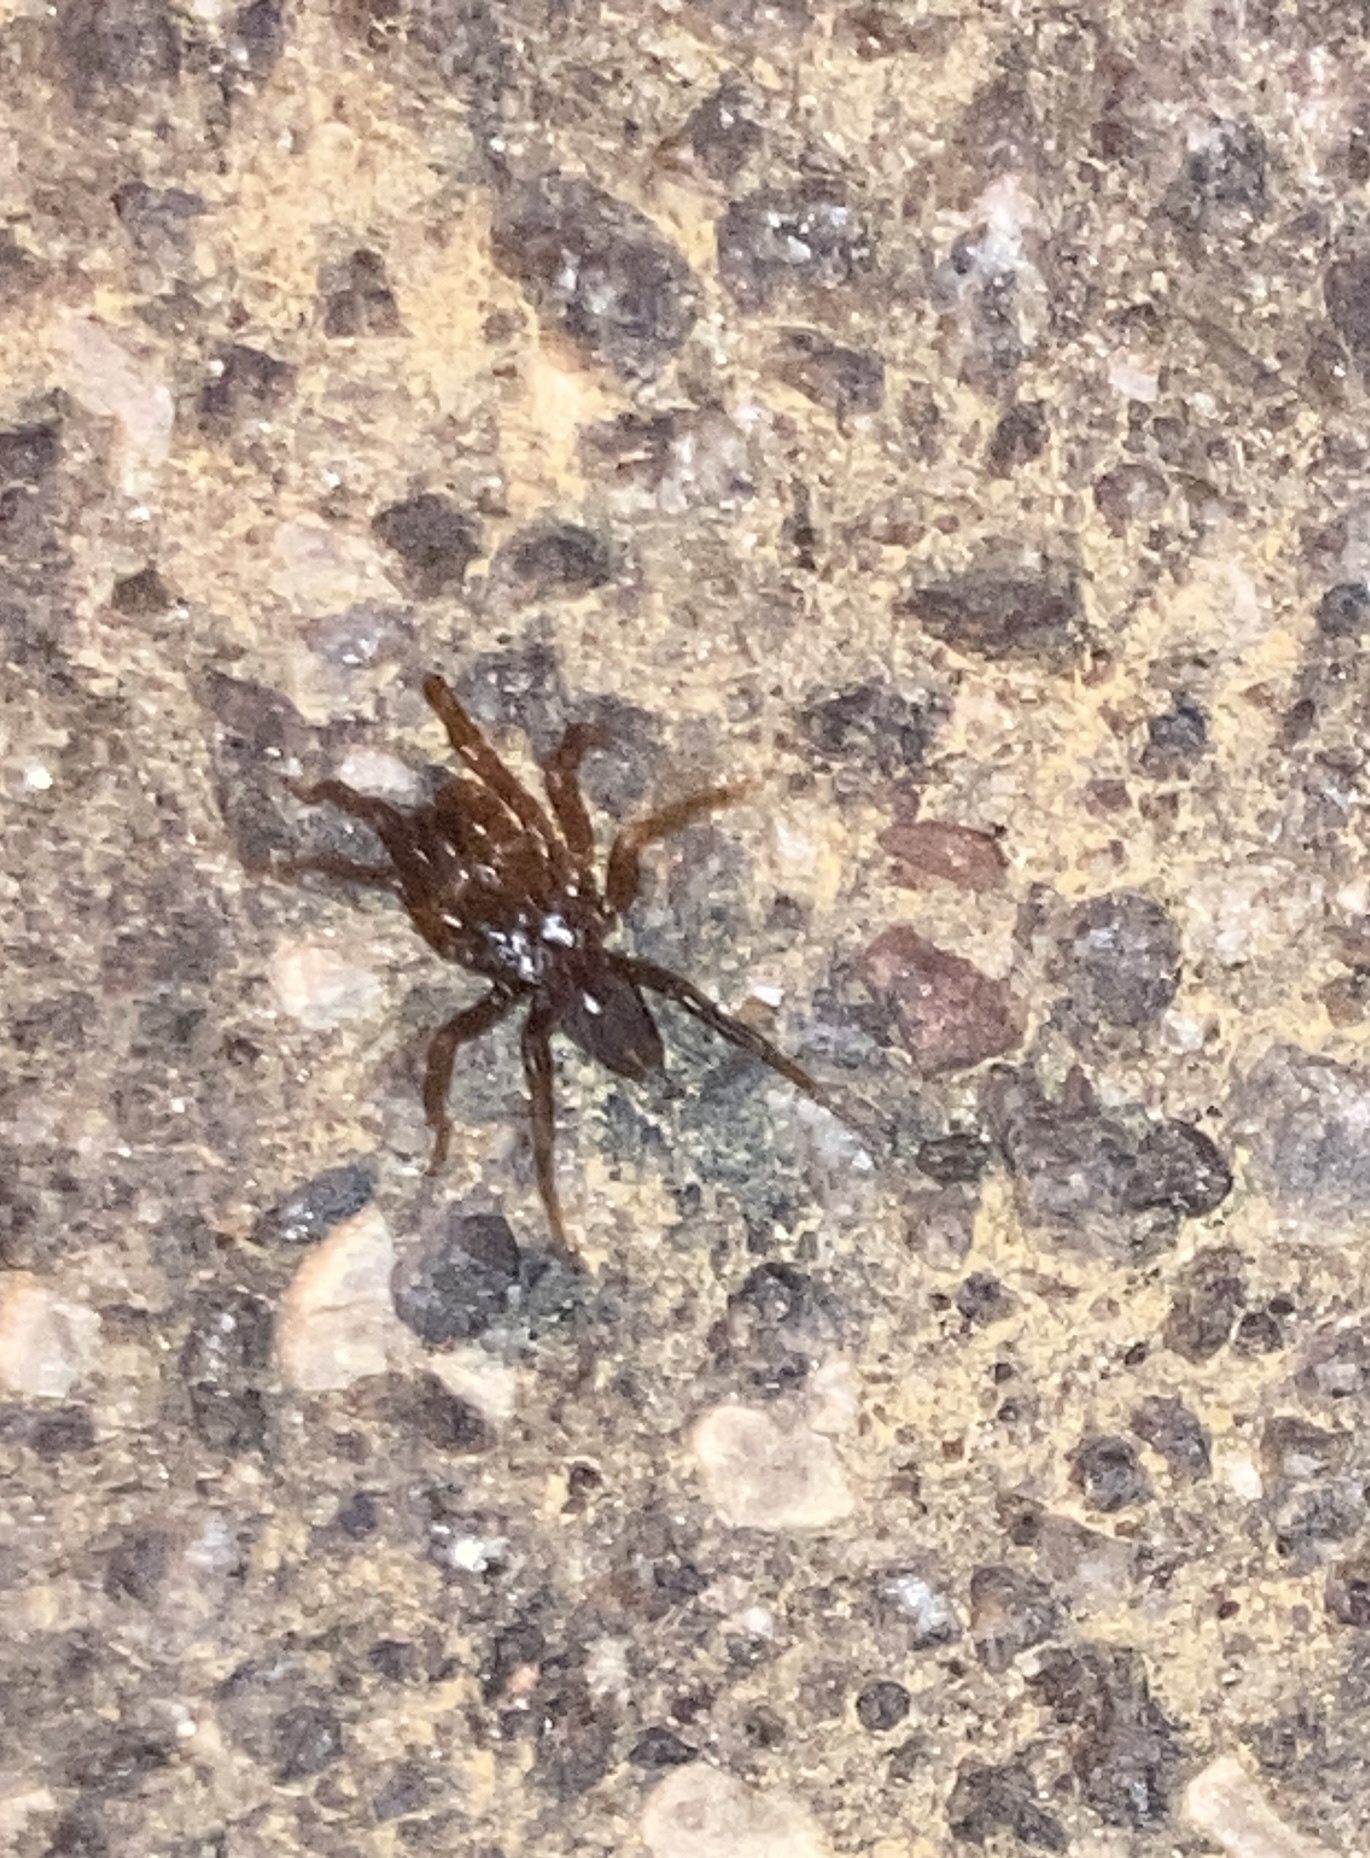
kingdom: Animalia
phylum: Arthropoda
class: Arachnida
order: Araneae
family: Atypidae
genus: Atypus
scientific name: Atypus karschi
